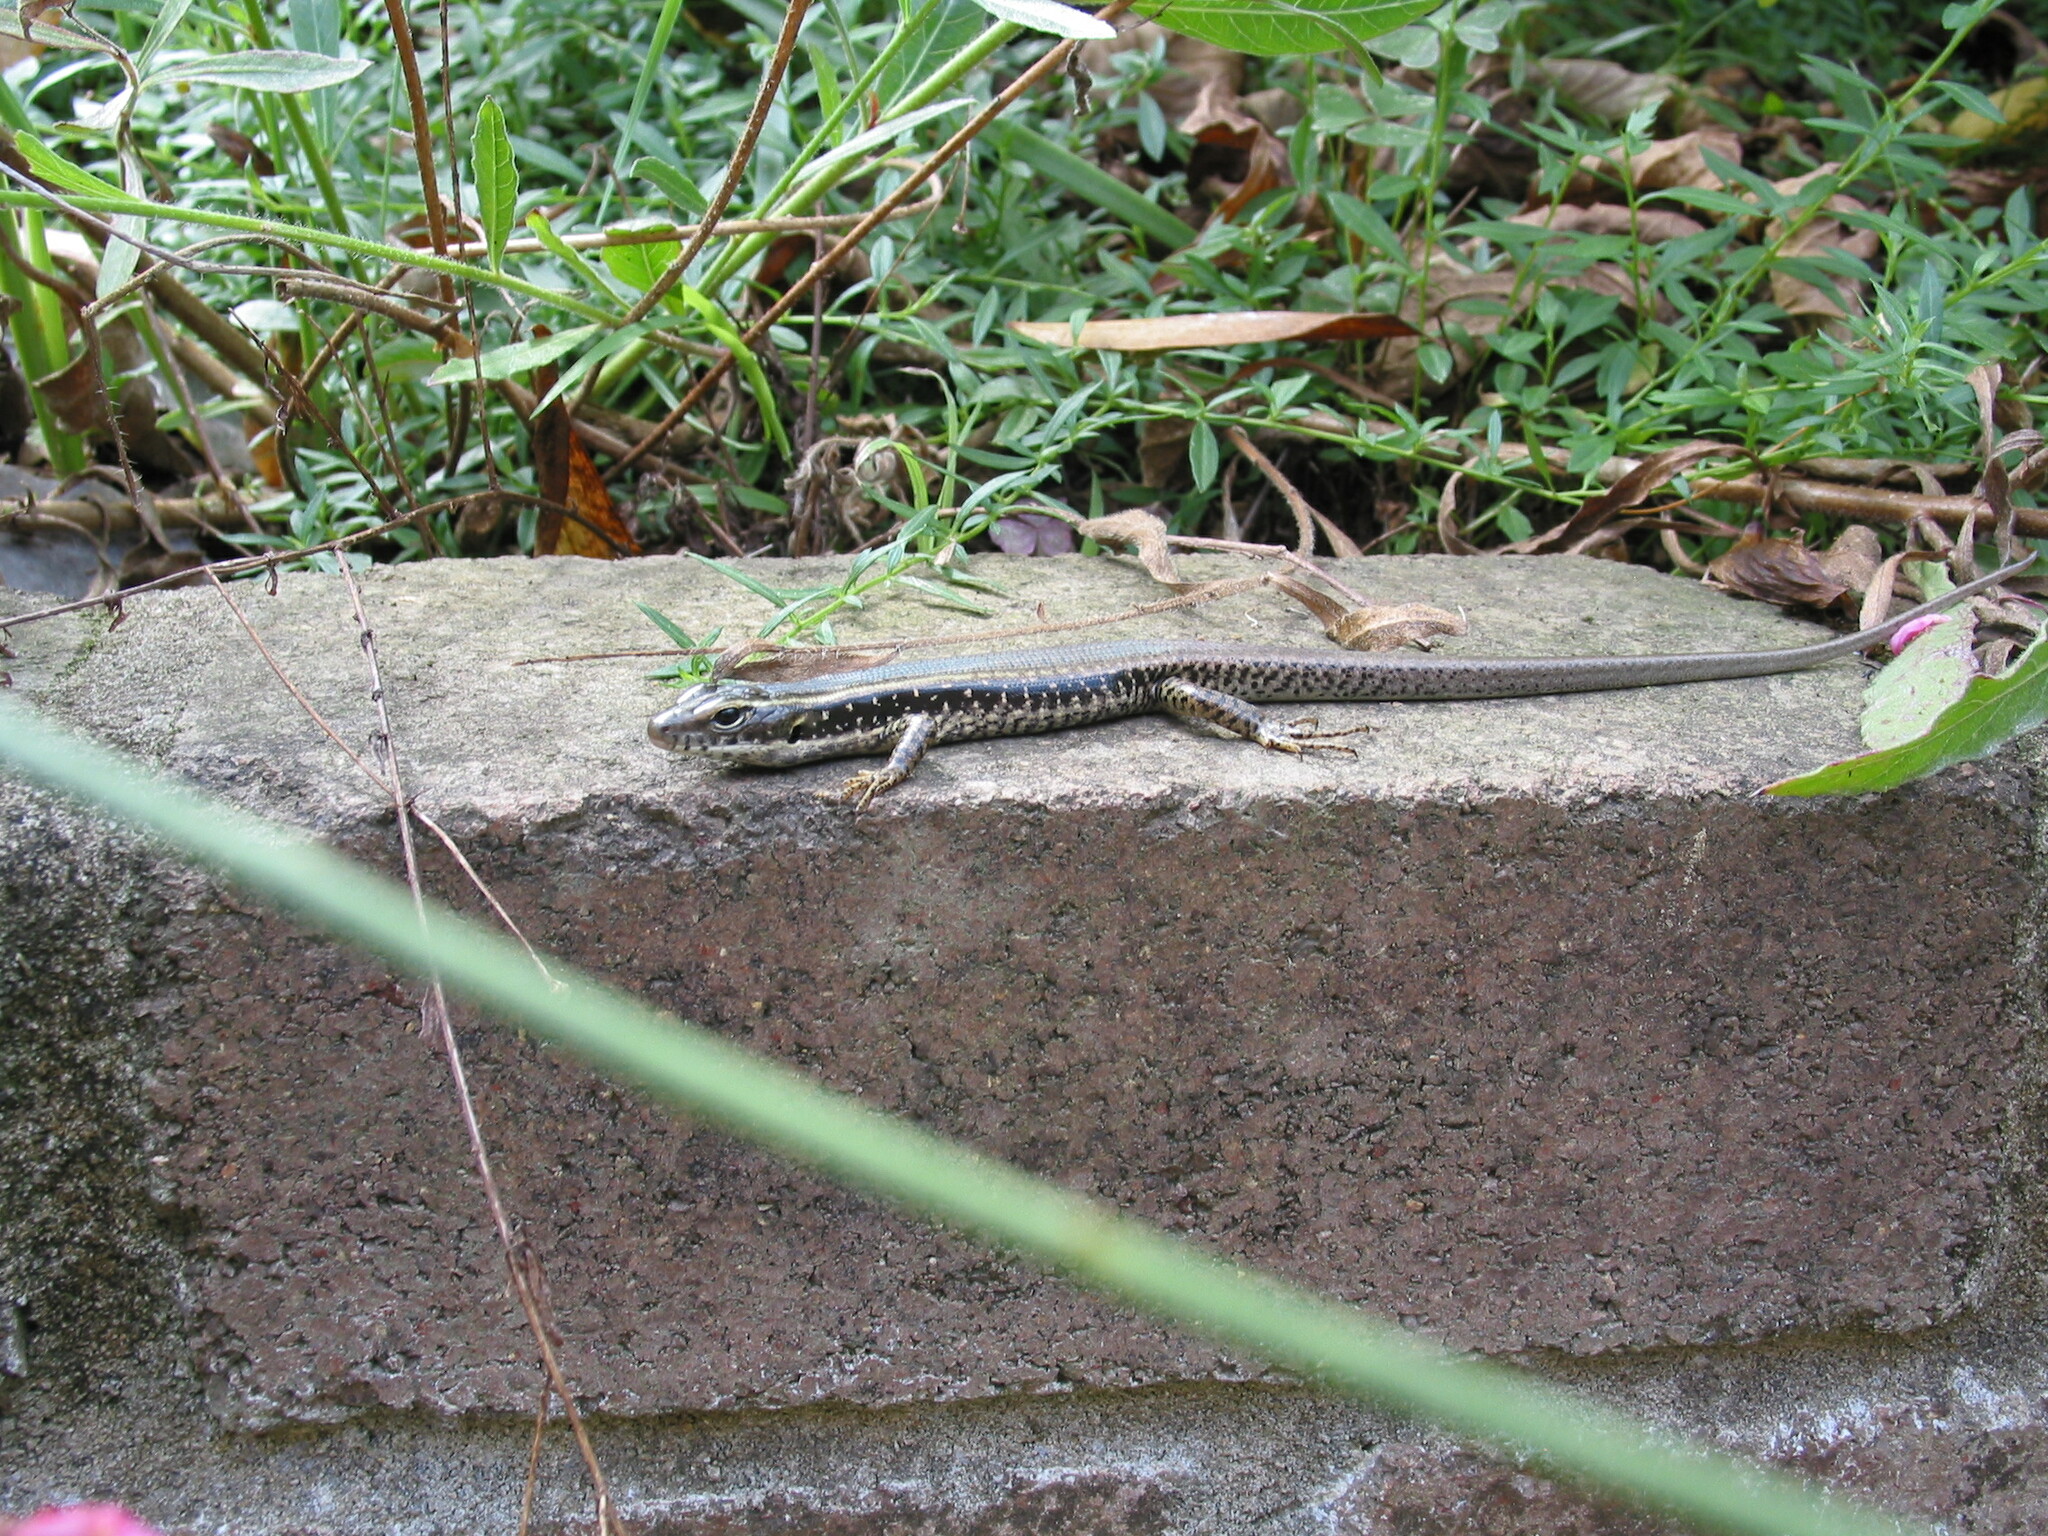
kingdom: Animalia
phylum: Chordata
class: Squamata
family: Scincidae
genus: Eulamprus
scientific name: Eulamprus quoyii
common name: Eastern water skink
